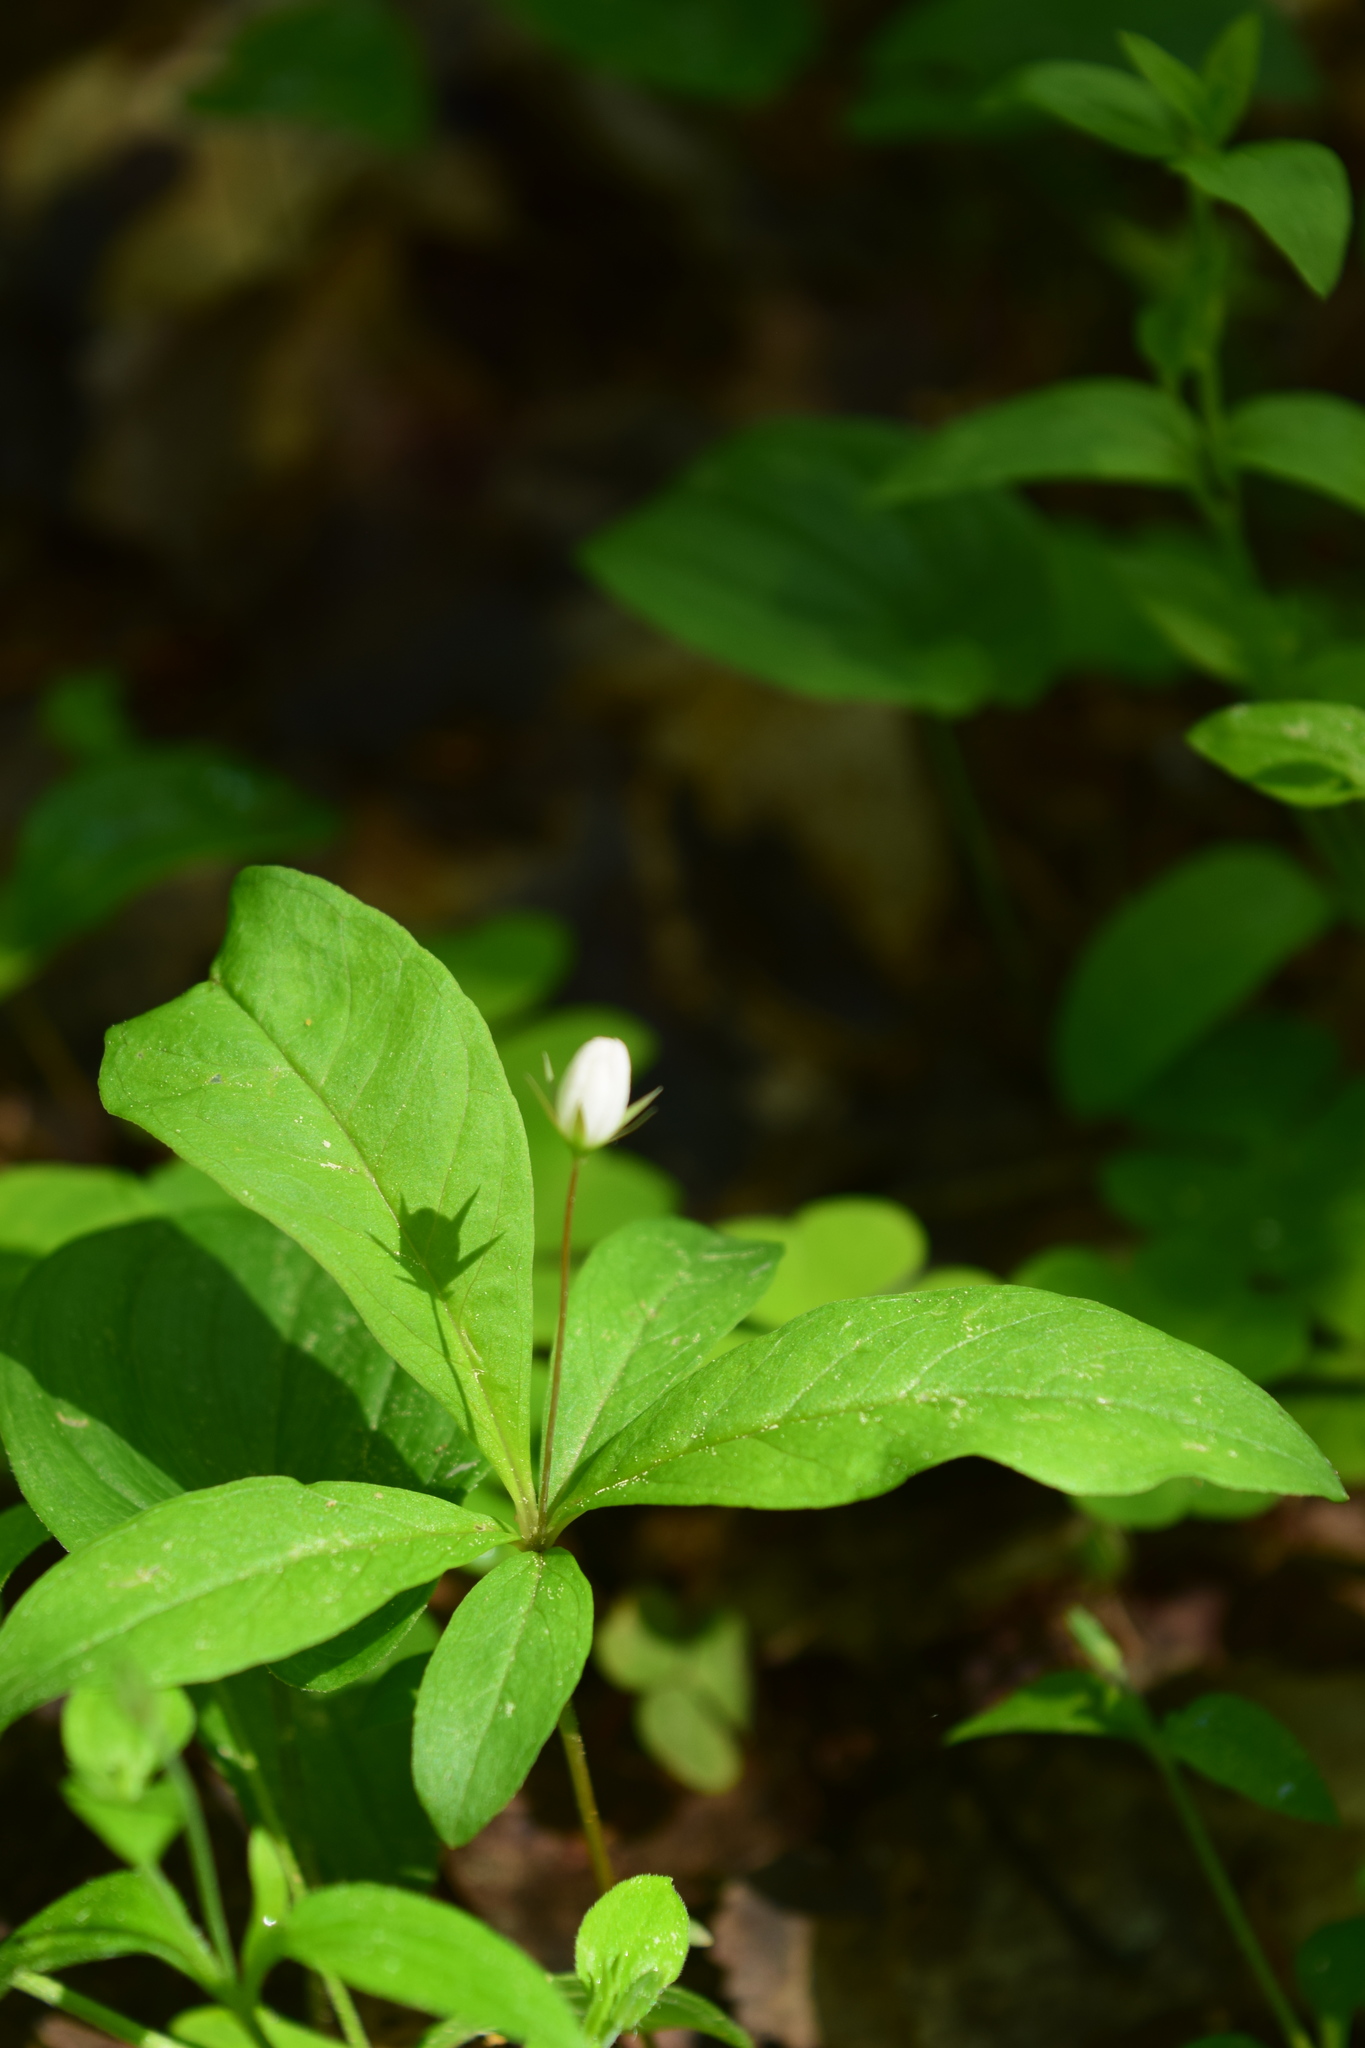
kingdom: Plantae
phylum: Tracheophyta
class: Magnoliopsida
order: Ericales
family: Primulaceae
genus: Lysimachia
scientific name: Lysimachia europaea
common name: Arctic starflower
